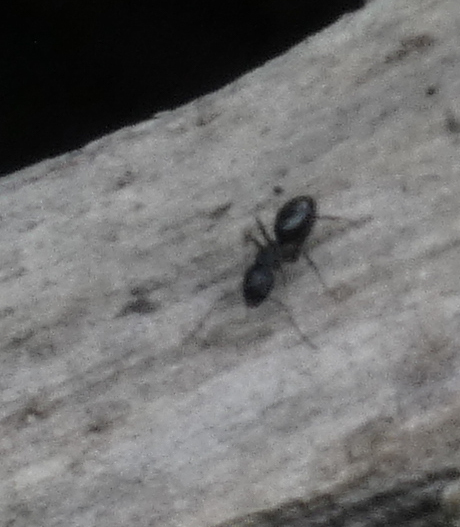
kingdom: Animalia
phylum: Arthropoda
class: Insecta
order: Hymenoptera
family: Formicidae
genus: Myrmentoma
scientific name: Myrmentoma
